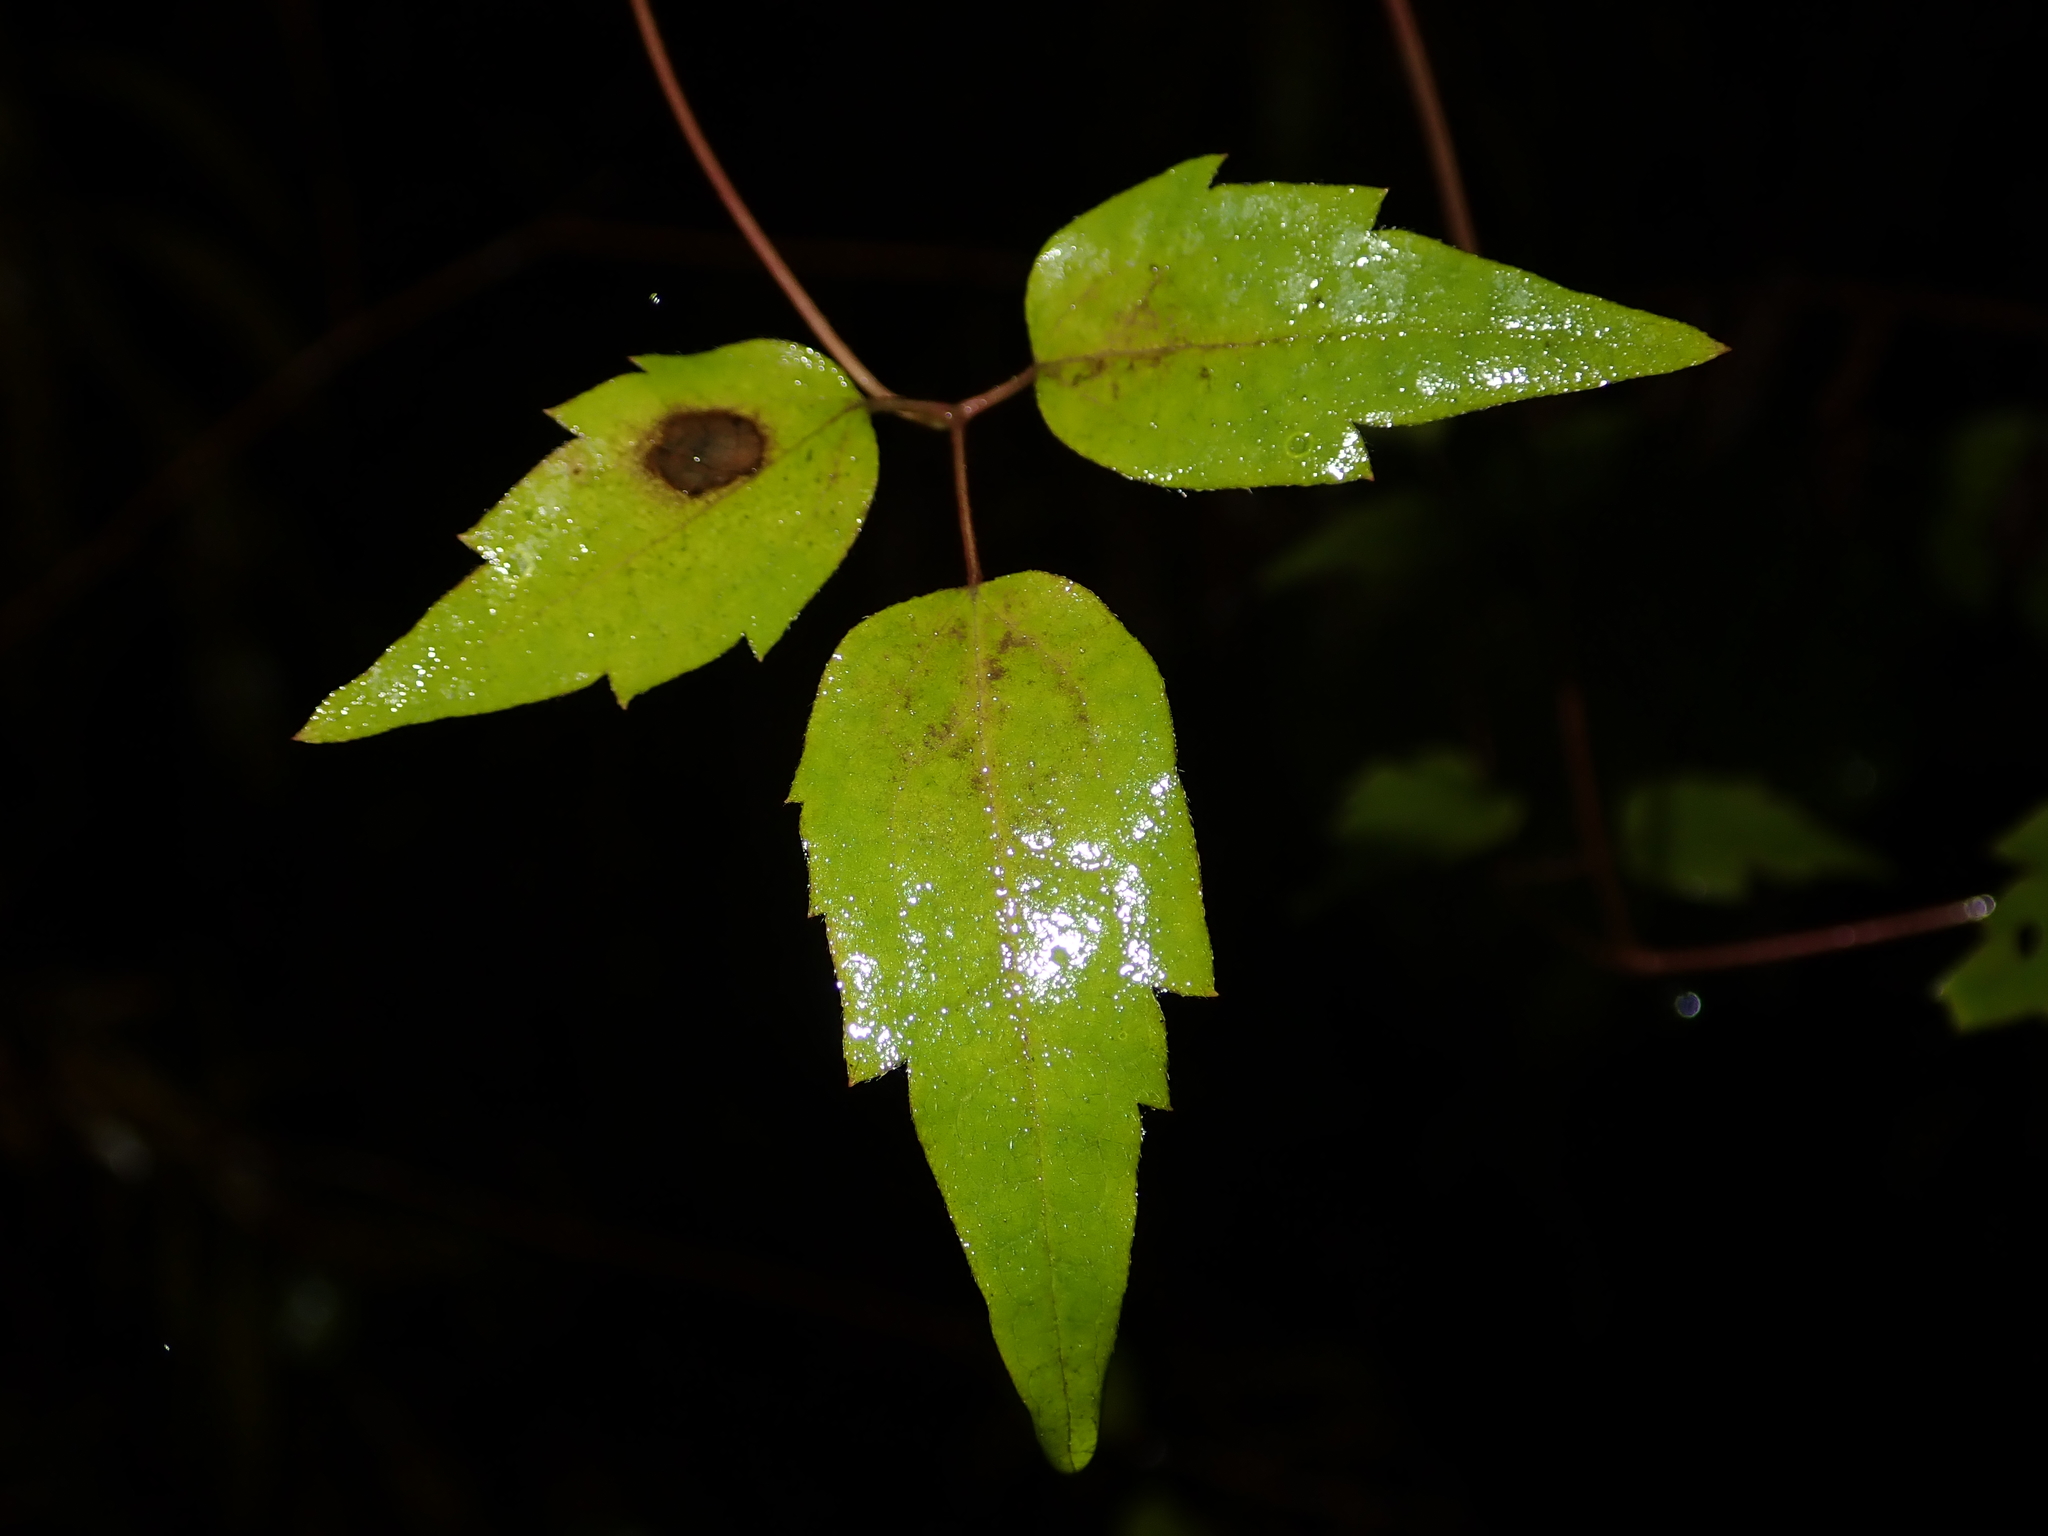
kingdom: Plantae
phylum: Tracheophyta
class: Magnoliopsida
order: Ranunculales
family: Ranunculaceae
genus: Clematis
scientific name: Clematis vitalba
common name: Evergreen clematis
